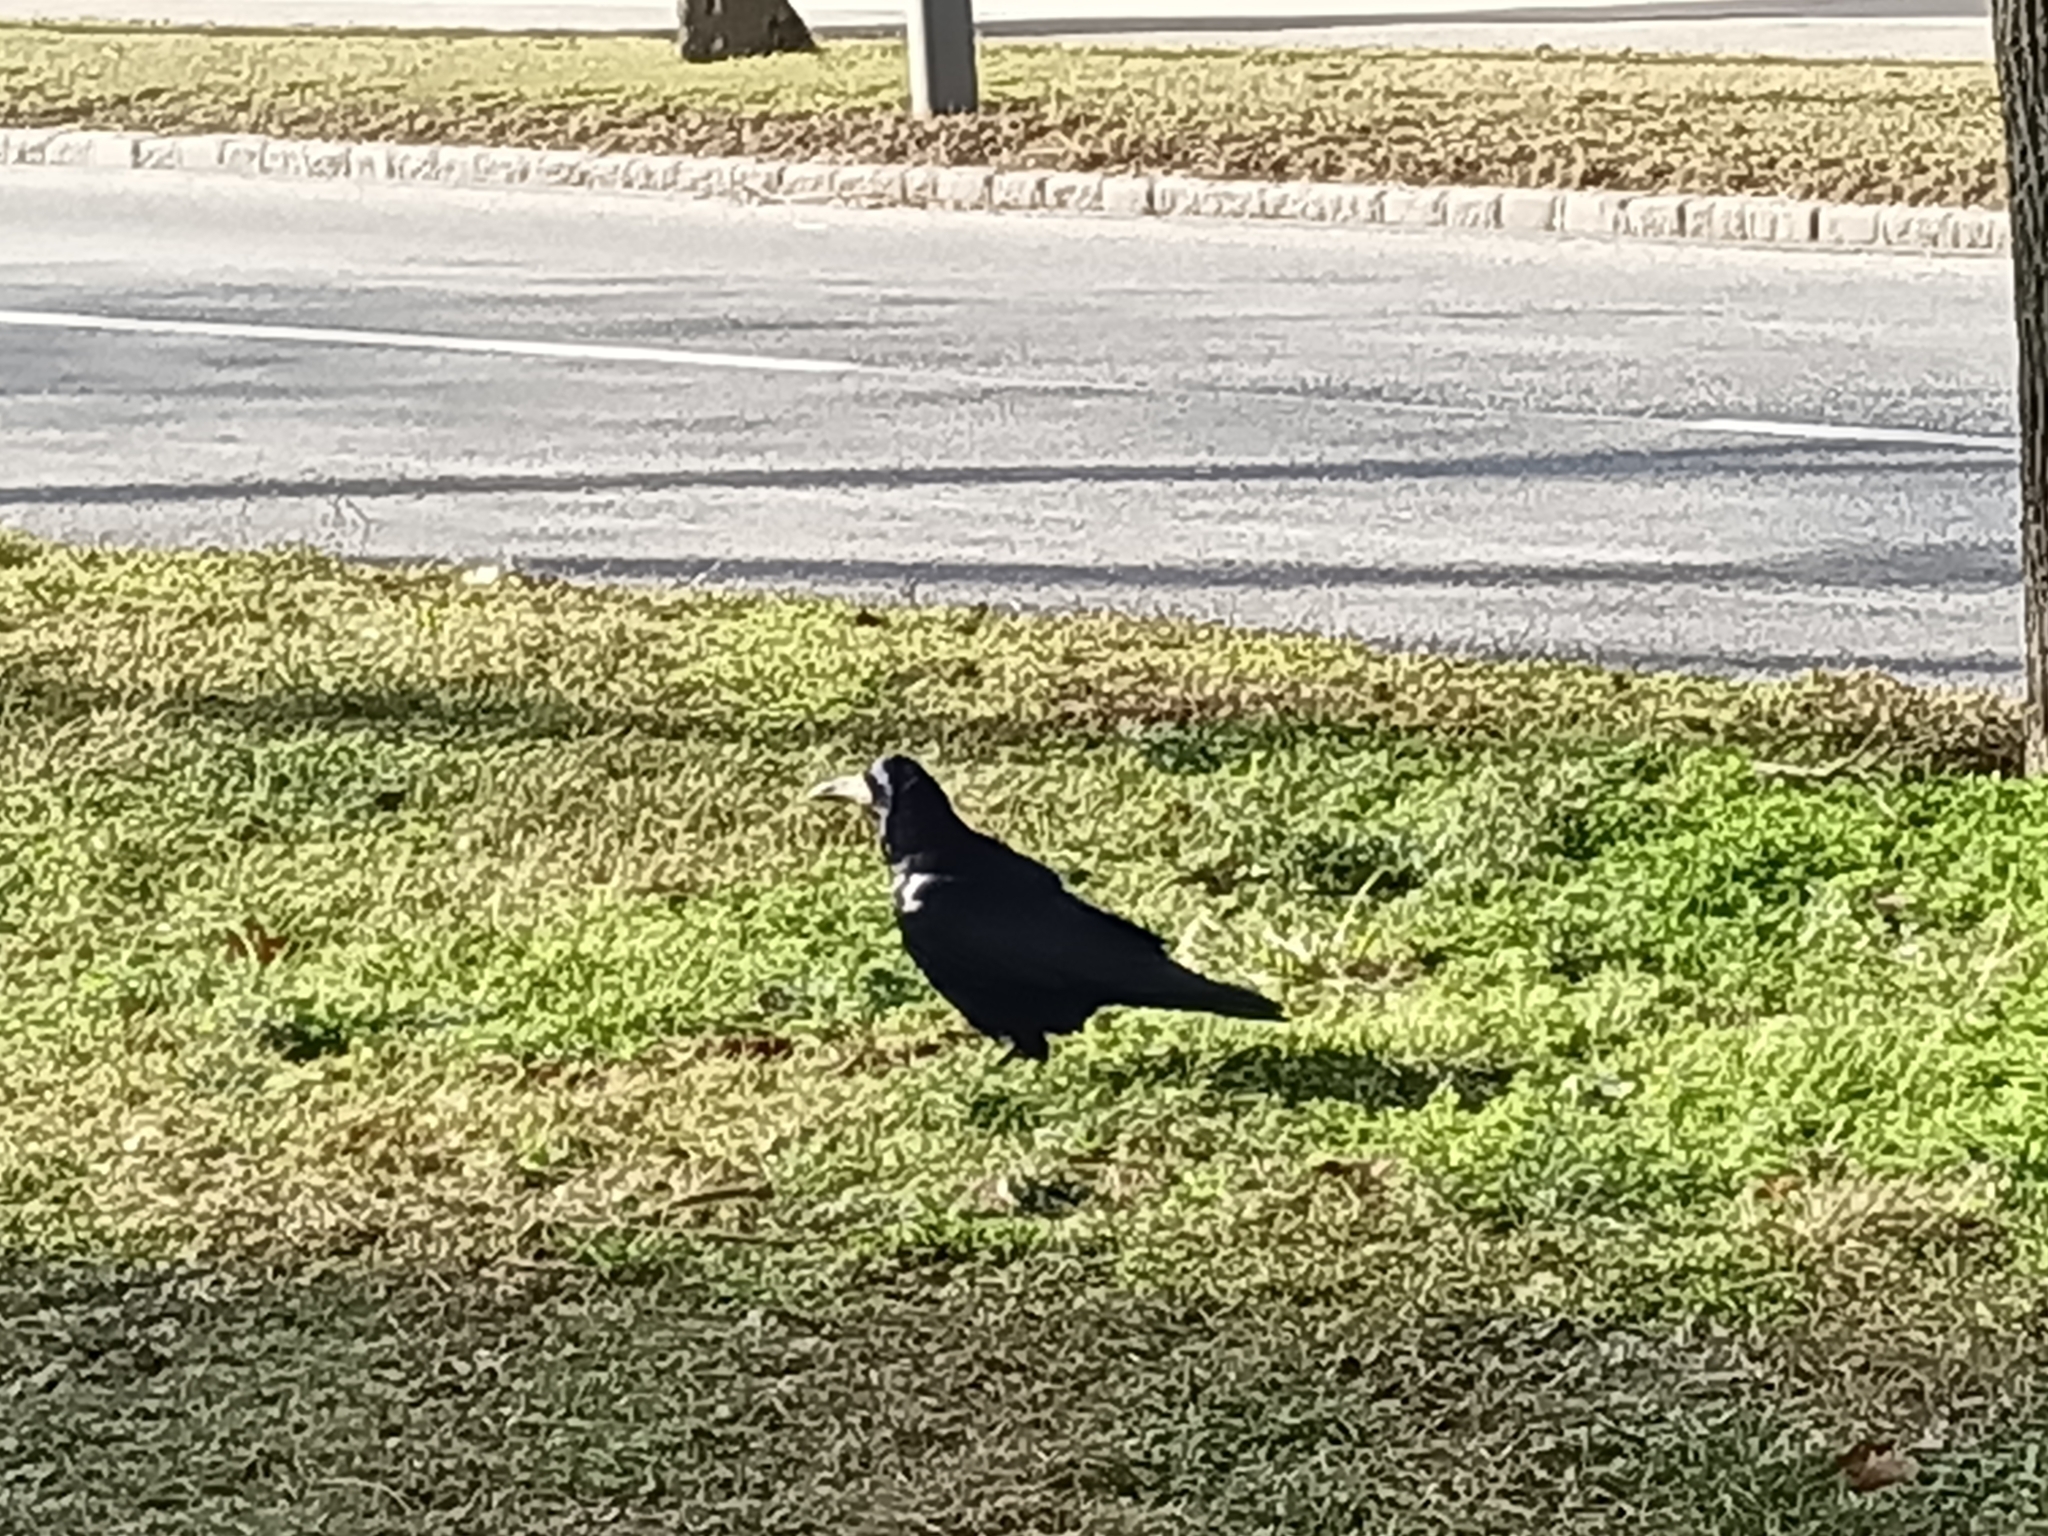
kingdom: Animalia
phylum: Chordata
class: Aves
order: Passeriformes
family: Corvidae
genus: Corvus
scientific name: Corvus frugilegus
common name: Rook
